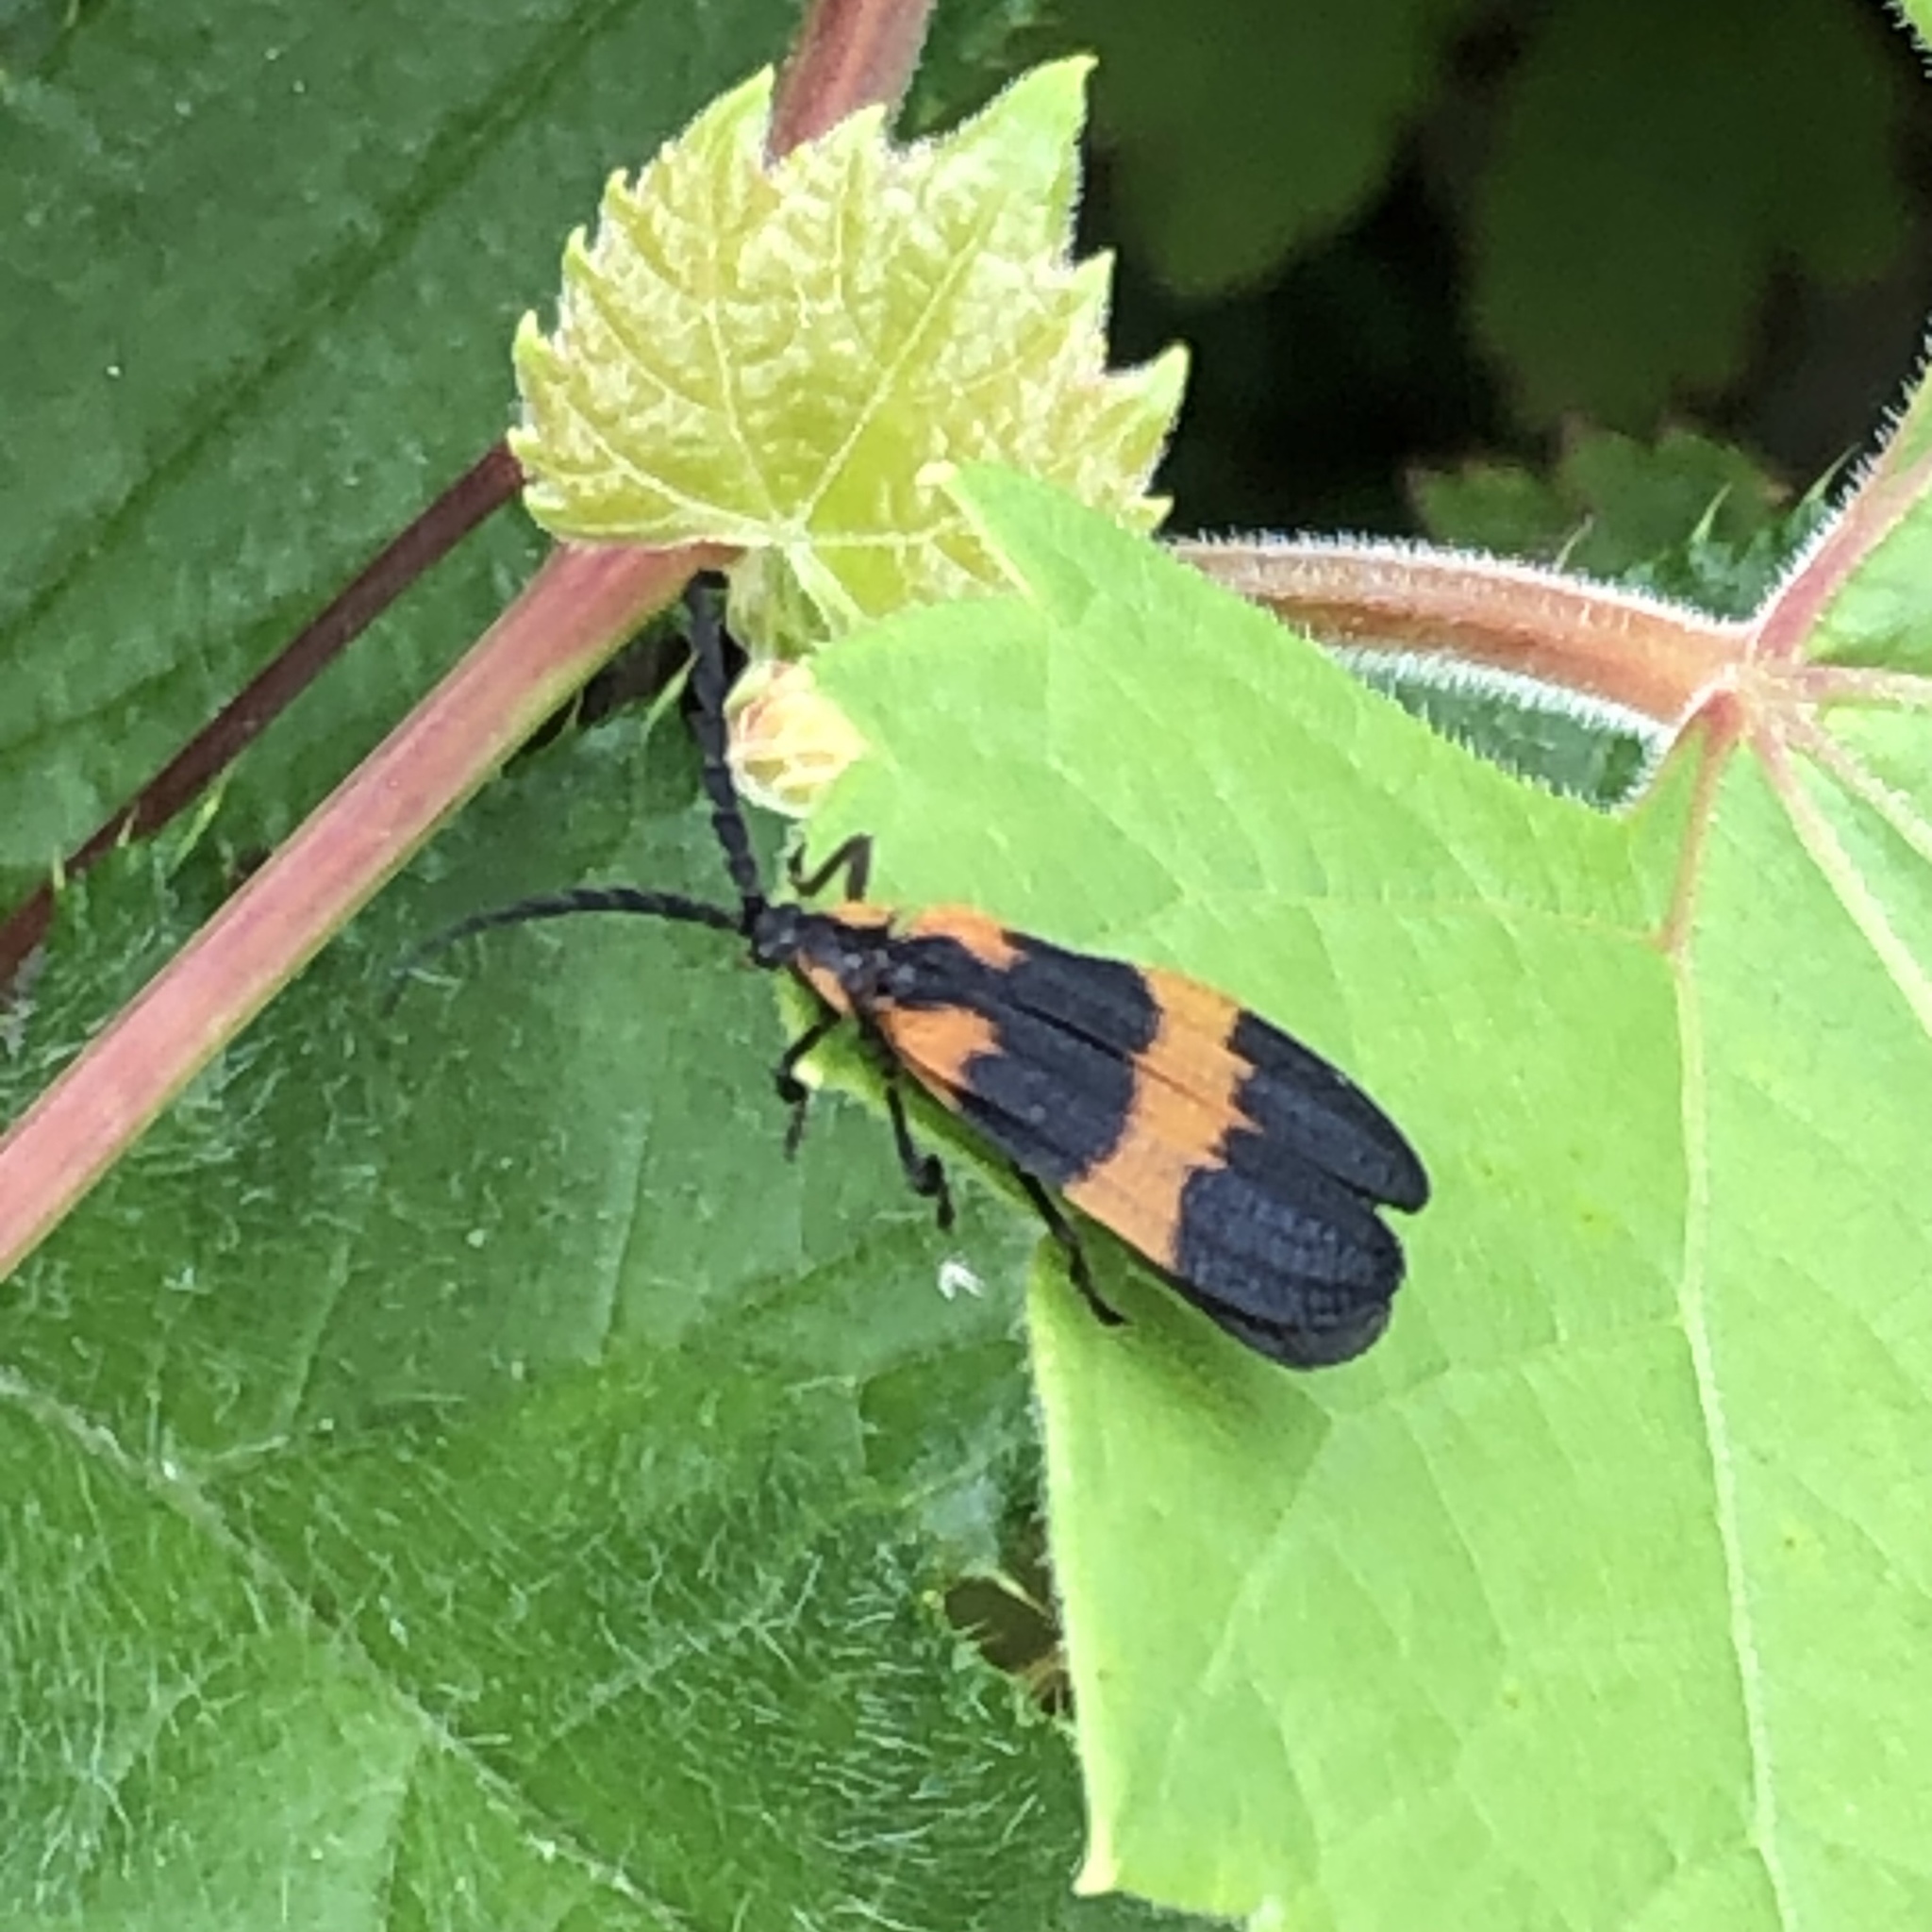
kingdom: Animalia
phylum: Arthropoda
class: Insecta
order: Coleoptera
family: Lycidae
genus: Calopteron
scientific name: Calopteron discrepans
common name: Banded net-winged beetle
